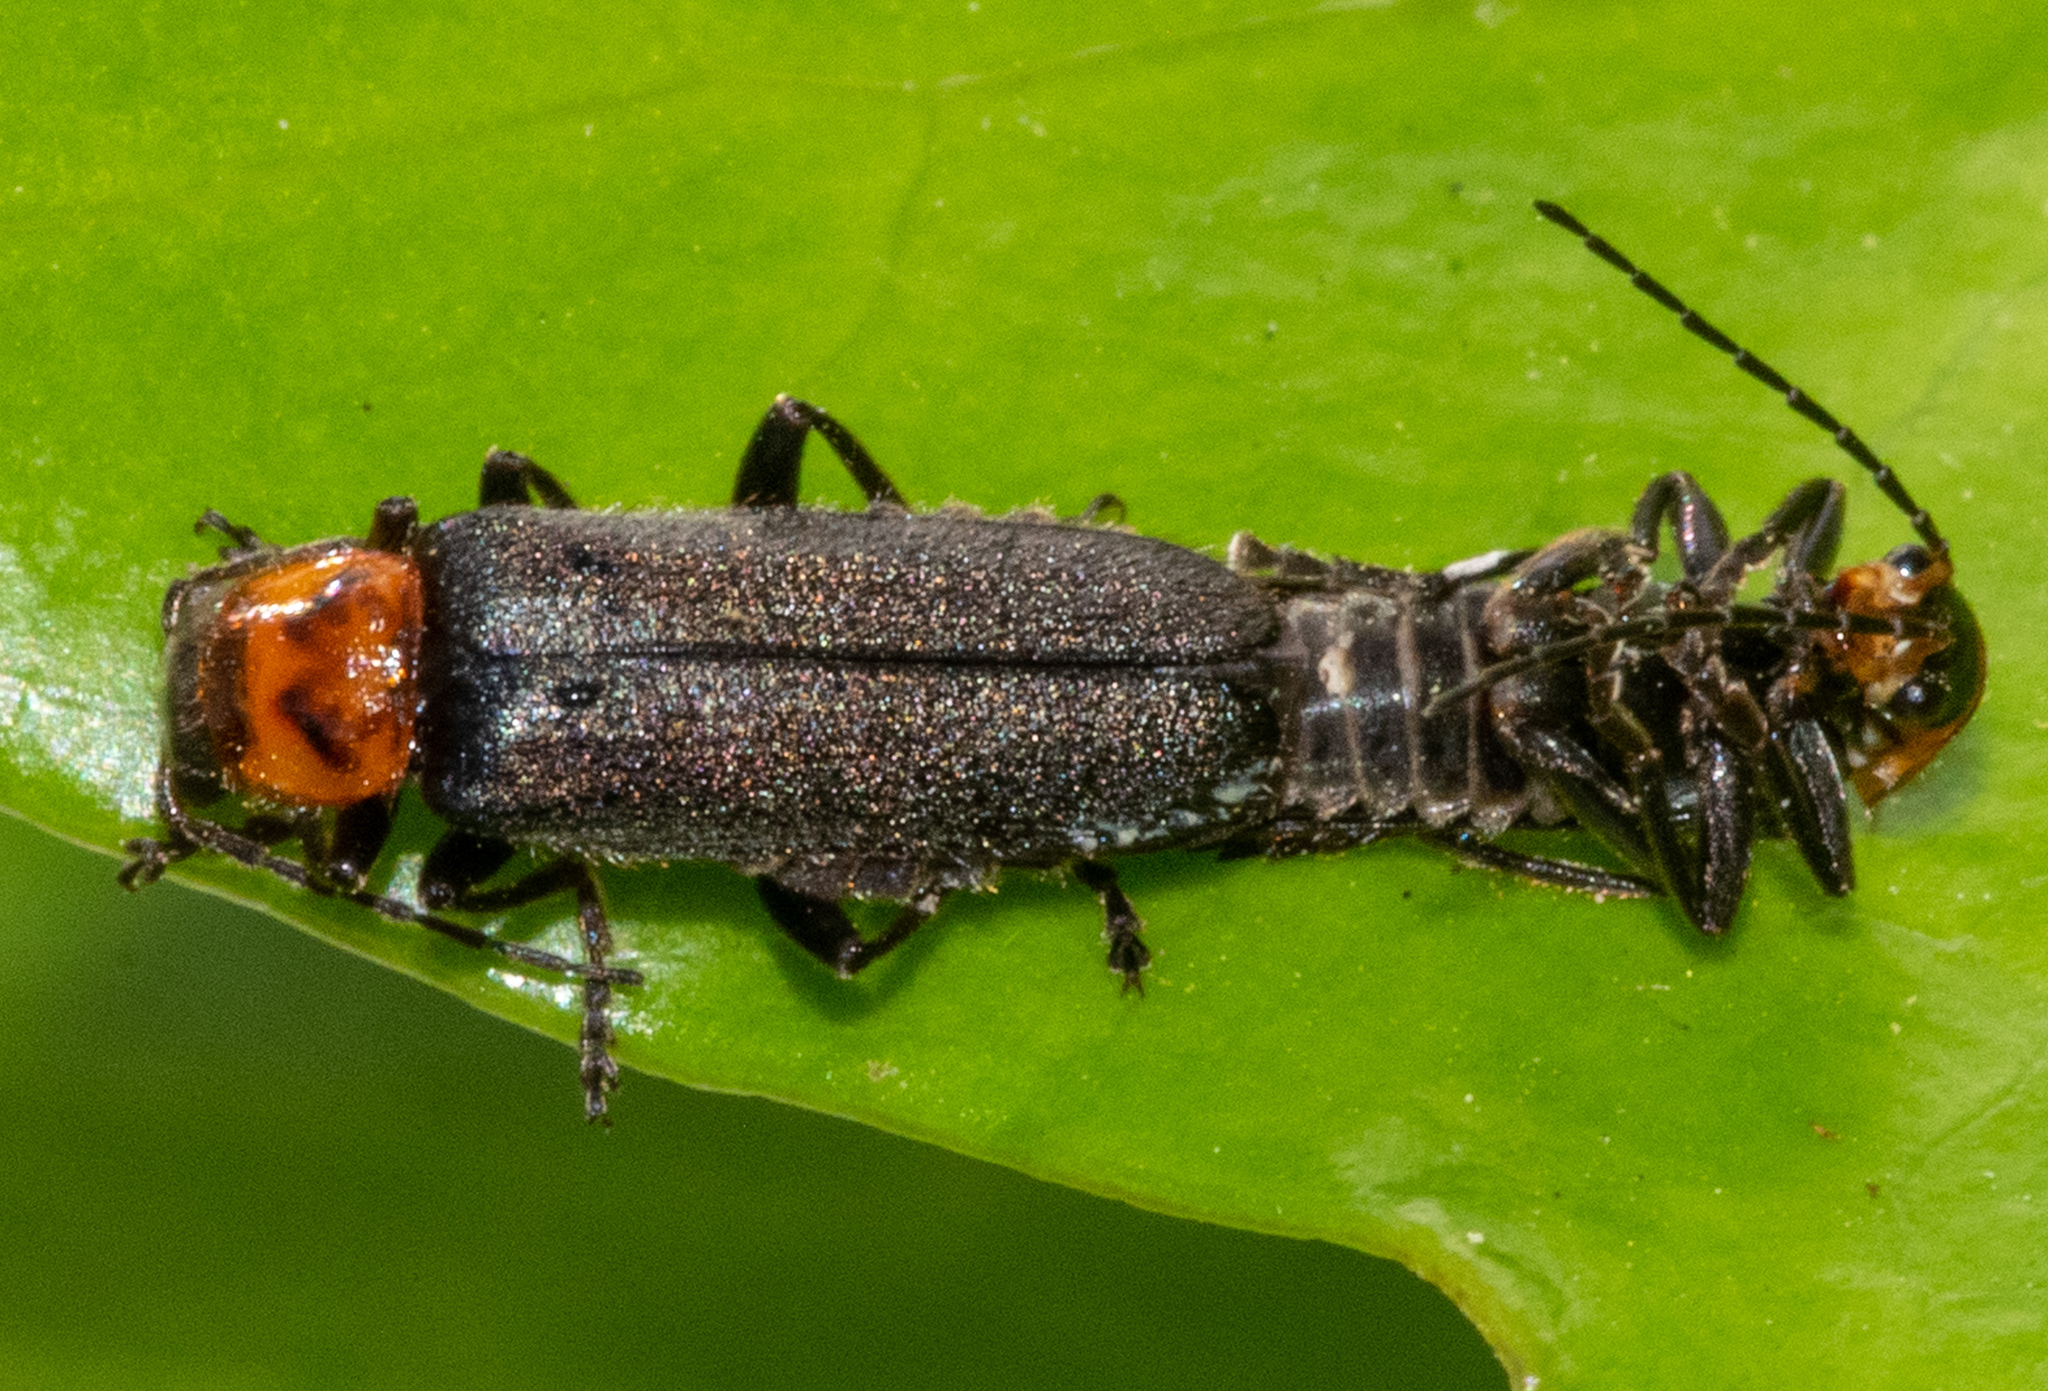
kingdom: Animalia
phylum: Arthropoda
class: Insecta
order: Coleoptera
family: Cantharidae
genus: Cyrtomoptera
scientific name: Cyrtomoptera divisa
